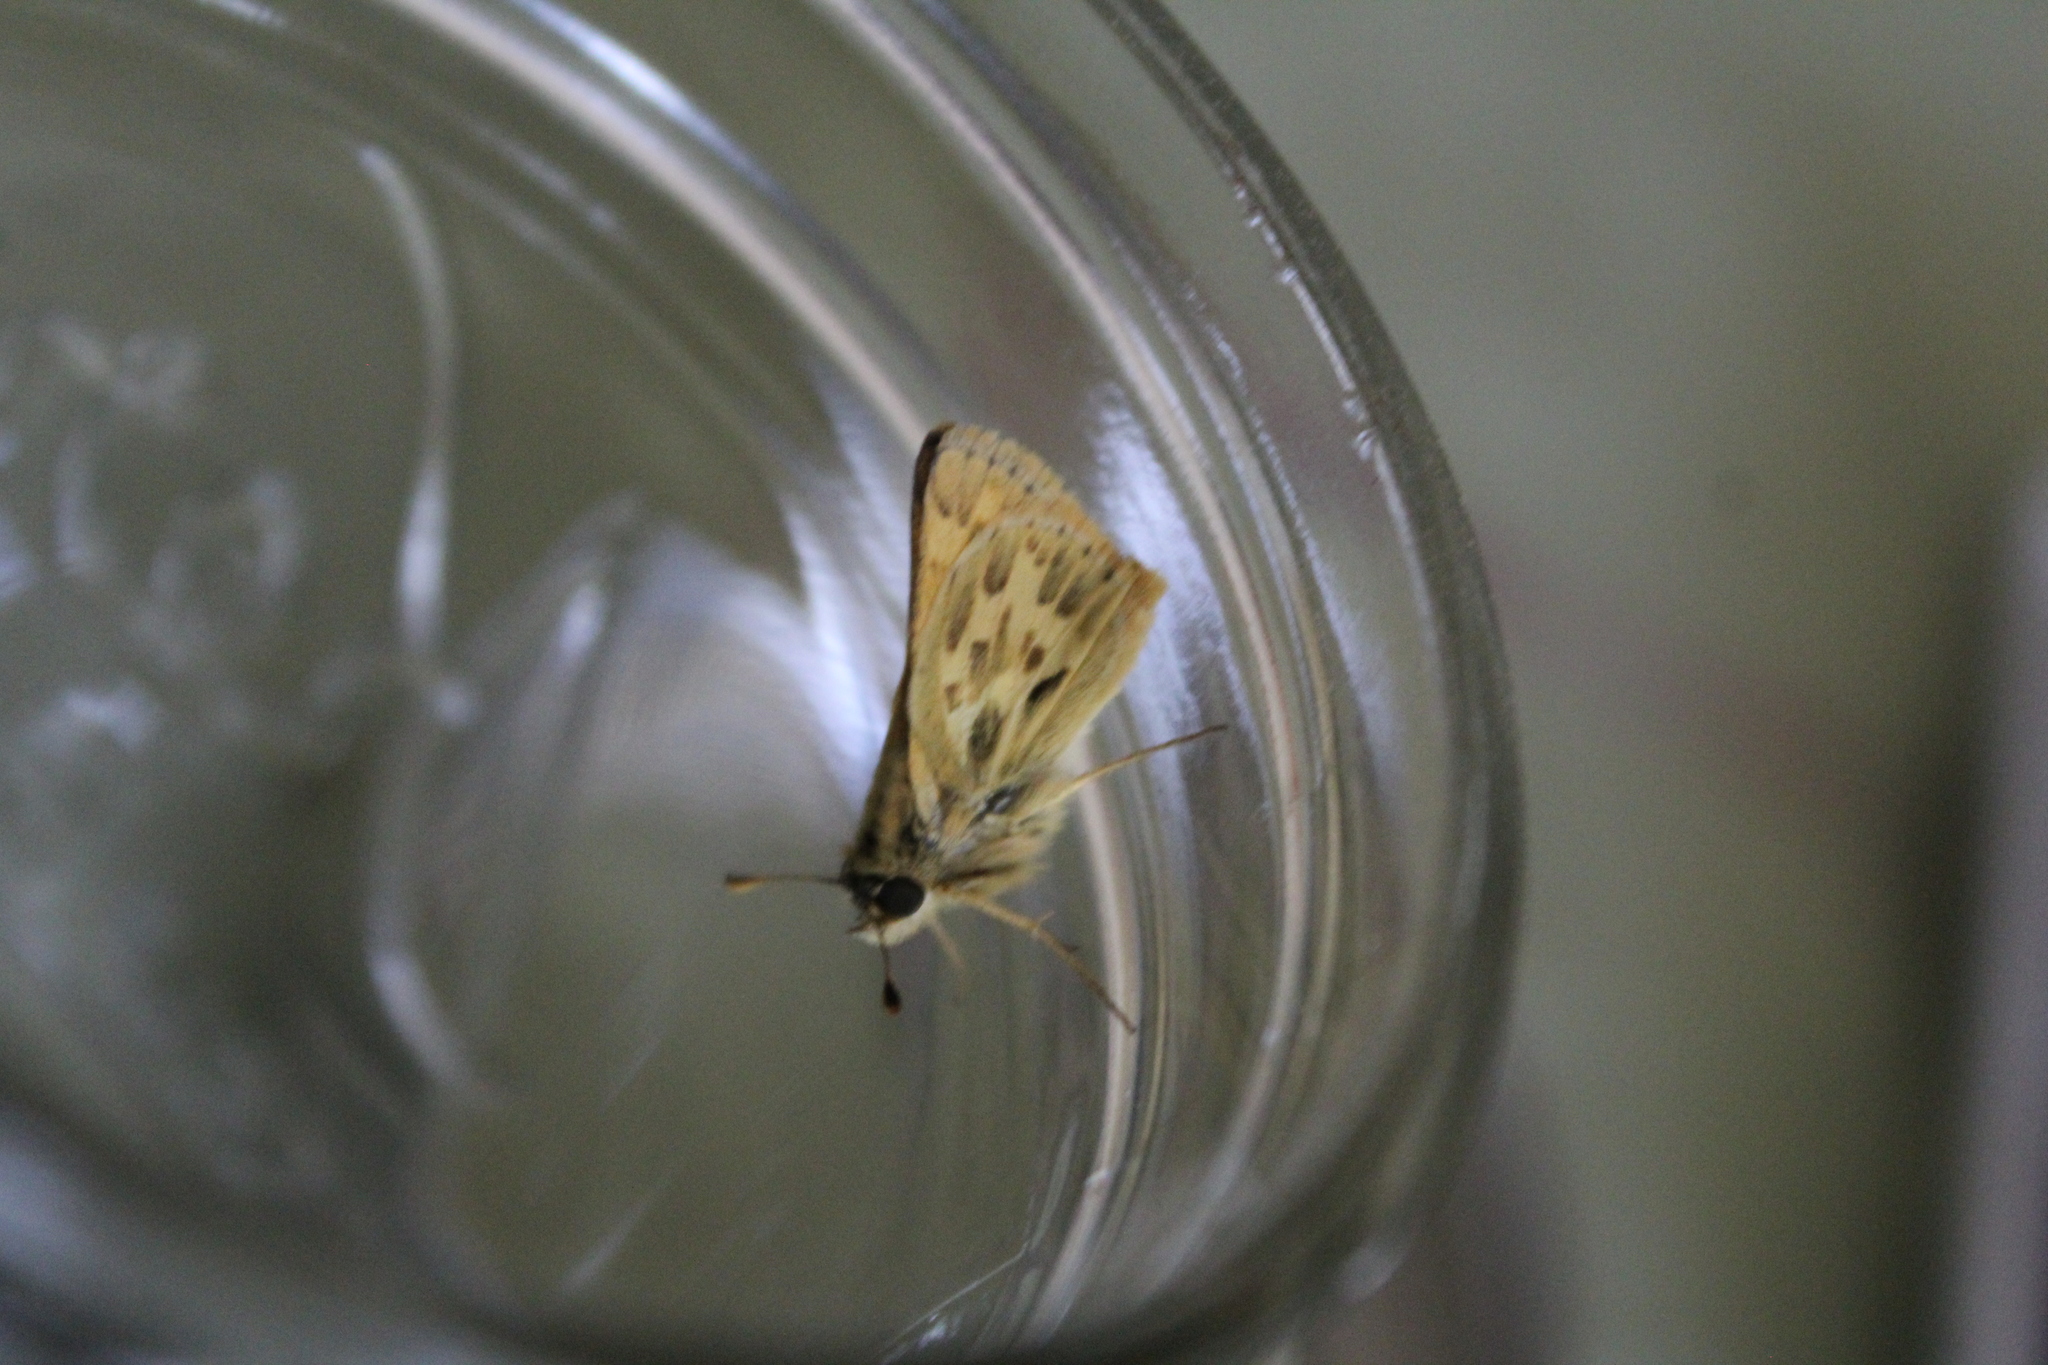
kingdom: Animalia
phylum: Arthropoda
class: Insecta
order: Lepidoptera
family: Hesperiidae
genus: Polites
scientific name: Polites sabuleti
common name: Sandhill skipper
